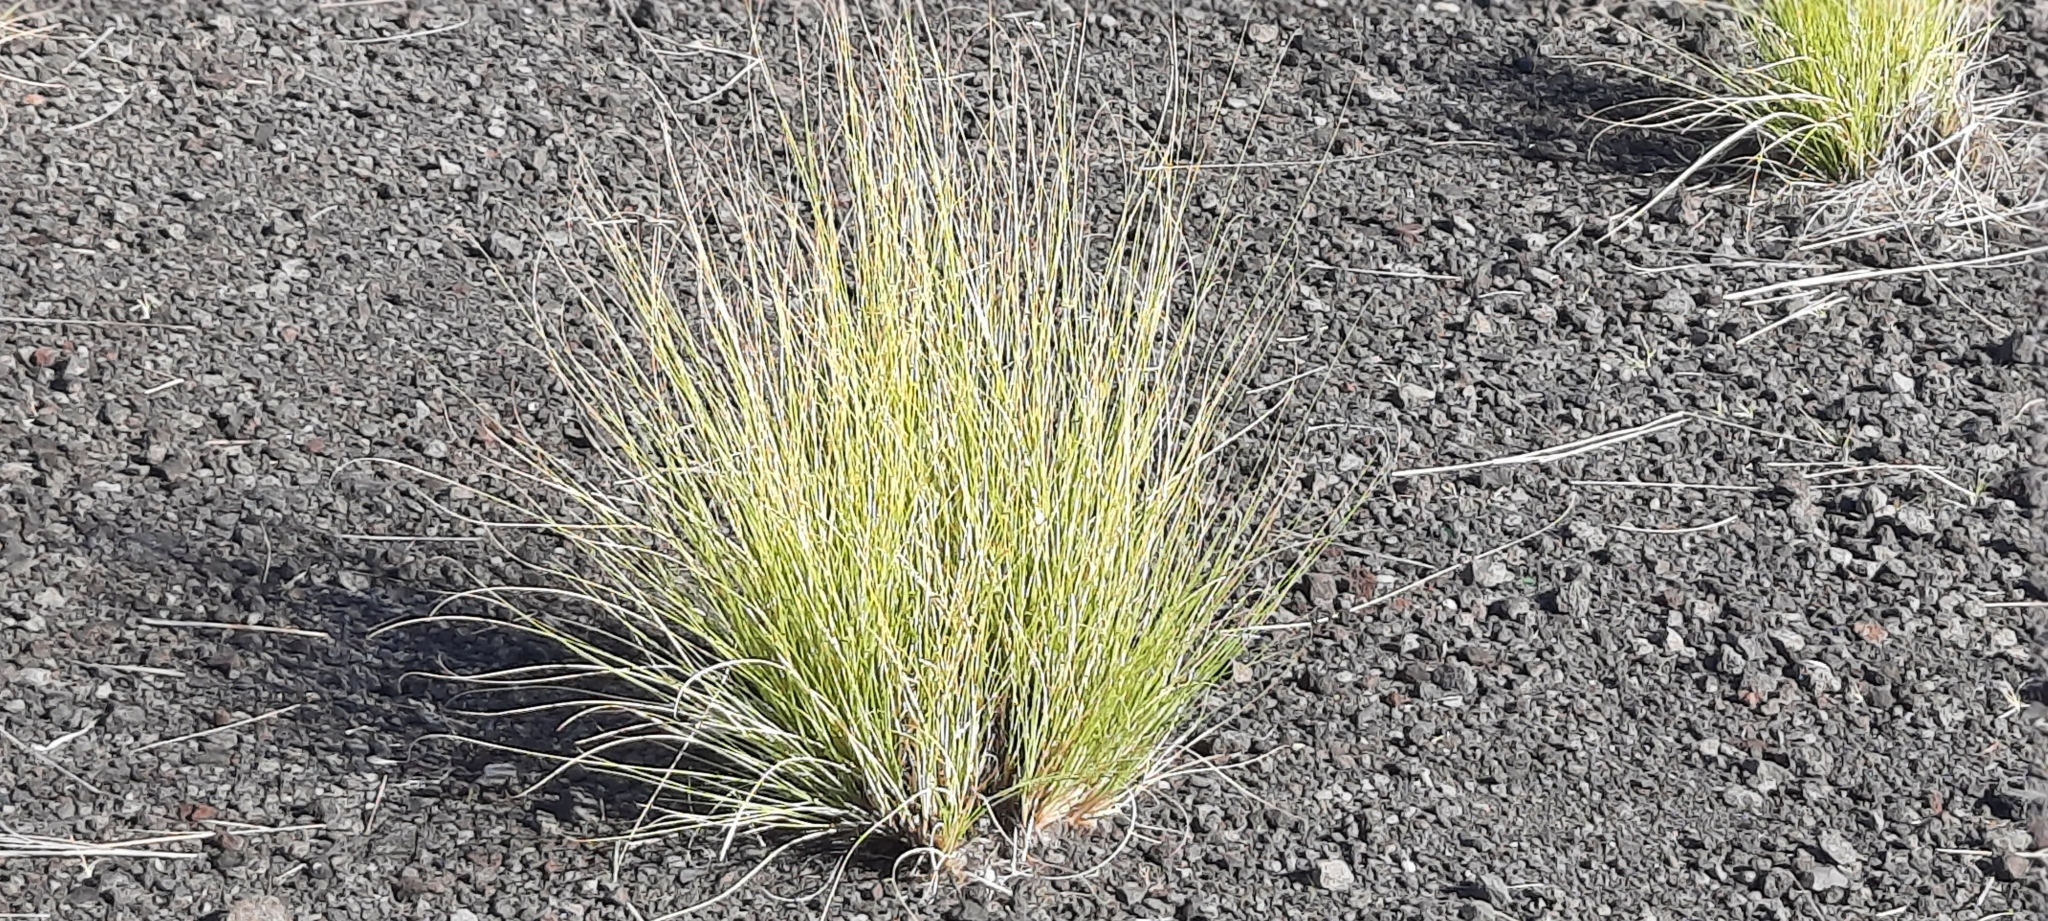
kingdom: Plantae
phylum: Tracheophyta
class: Liliopsida
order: Poales
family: Poaceae
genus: Cenchrus
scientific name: Cenchrus setaceus
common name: Crimson fountaingrass
